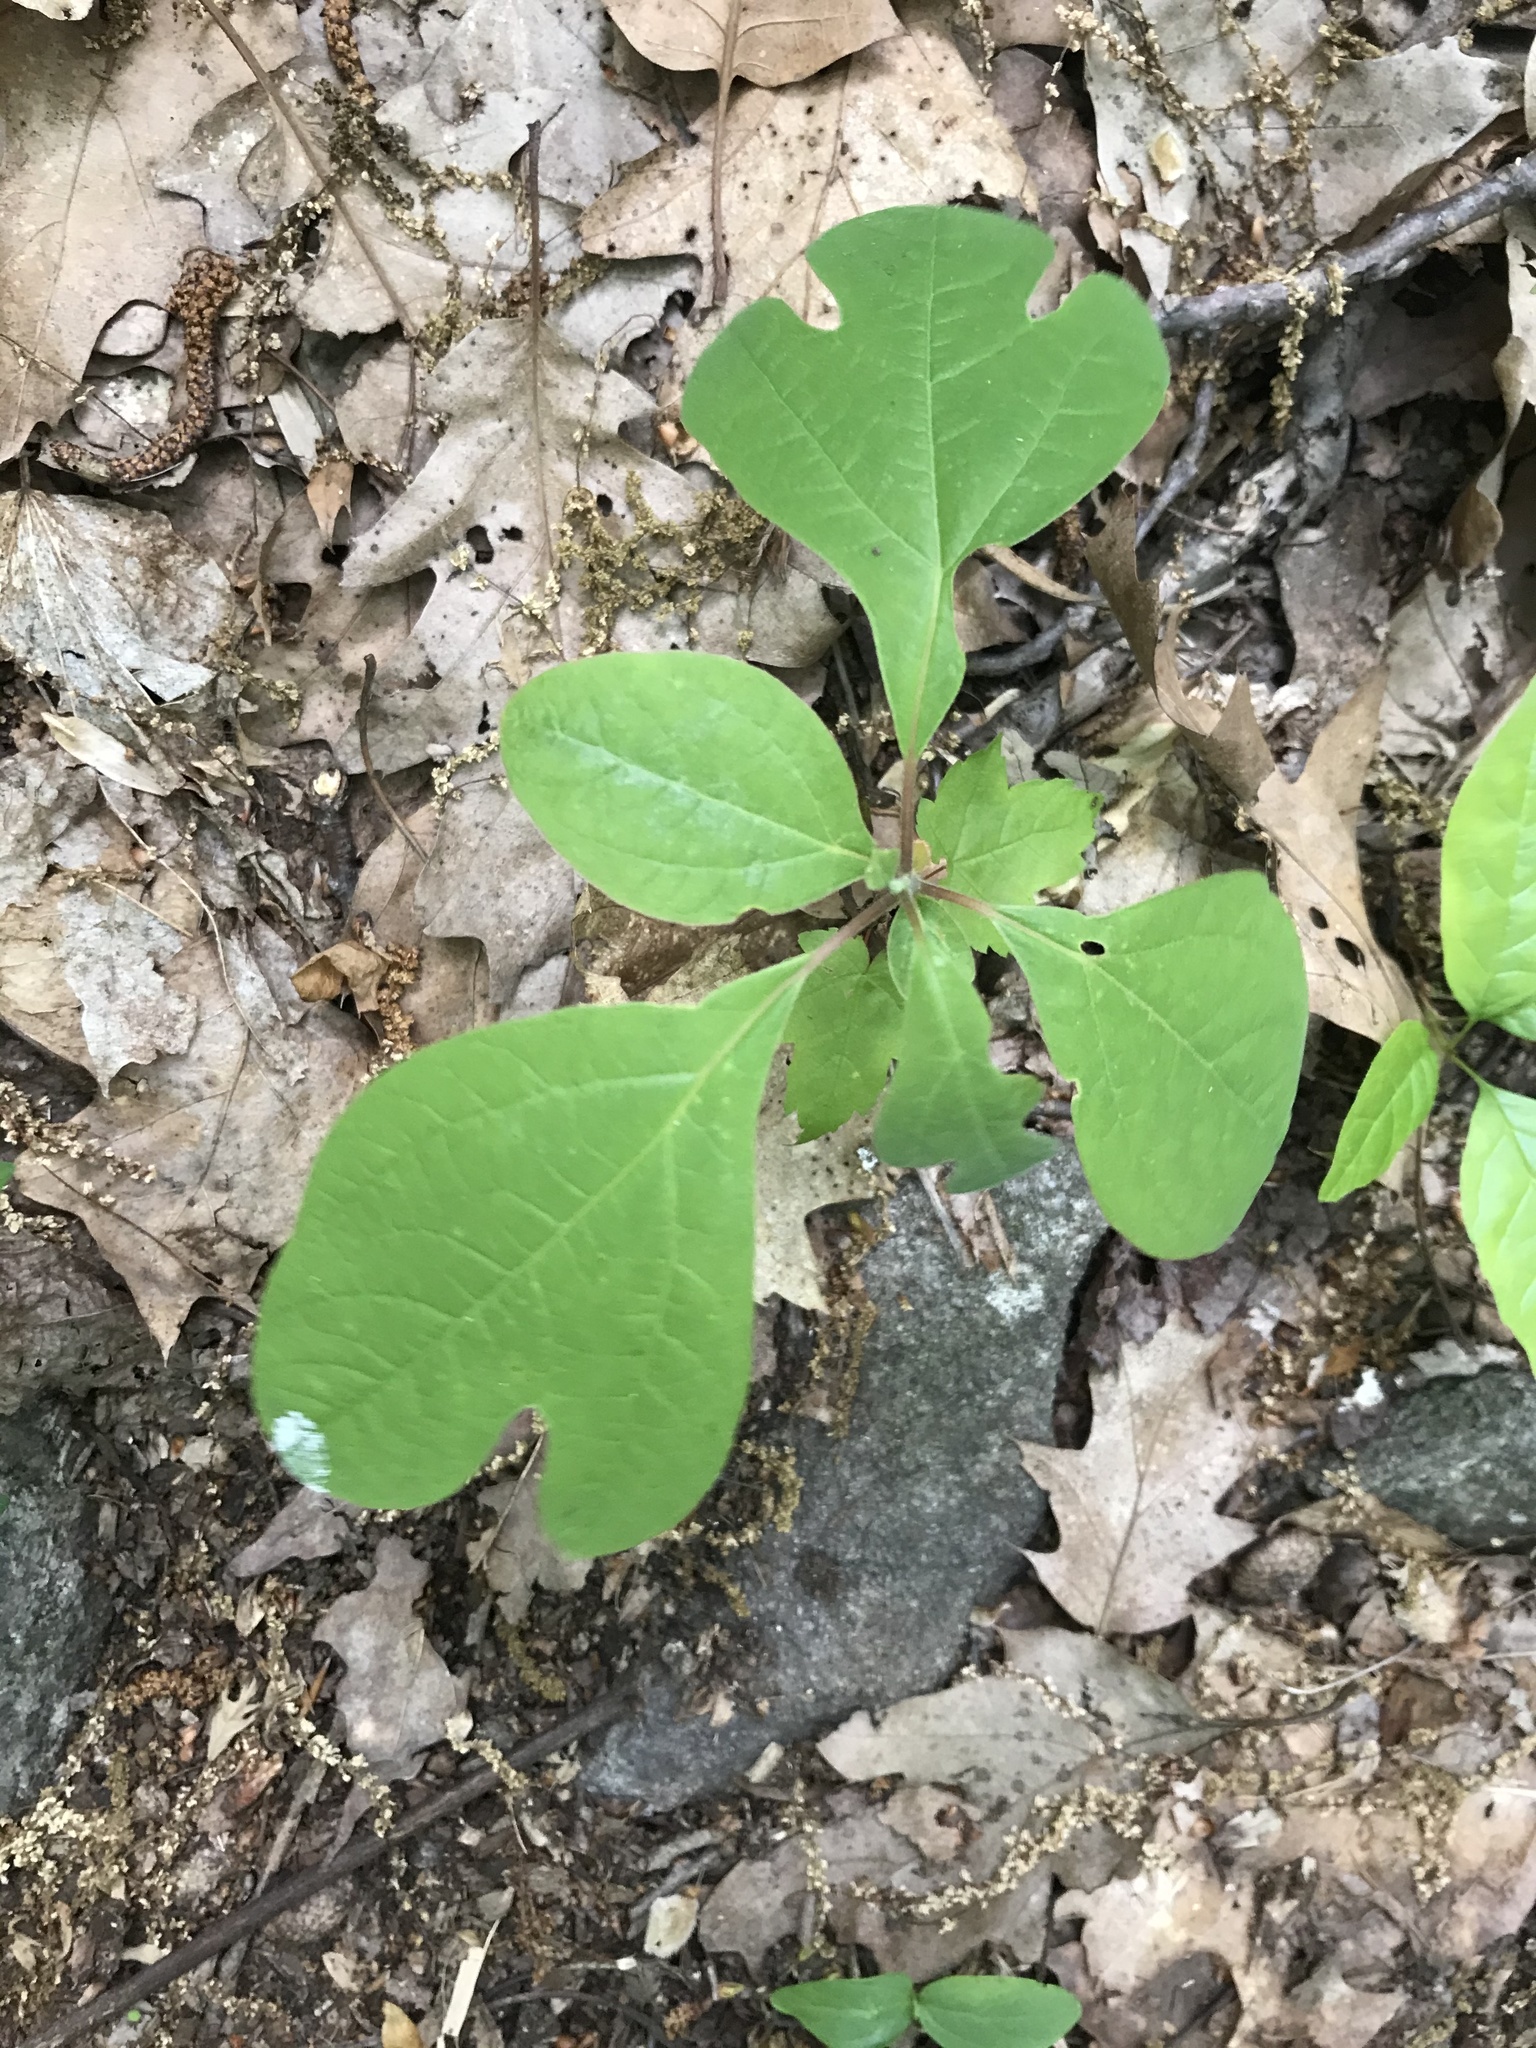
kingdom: Plantae
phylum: Tracheophyta
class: Magnoliopsida
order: Laurales
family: Lauraceae
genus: Sassafras
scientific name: Sassafras albidum
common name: Sassafras
